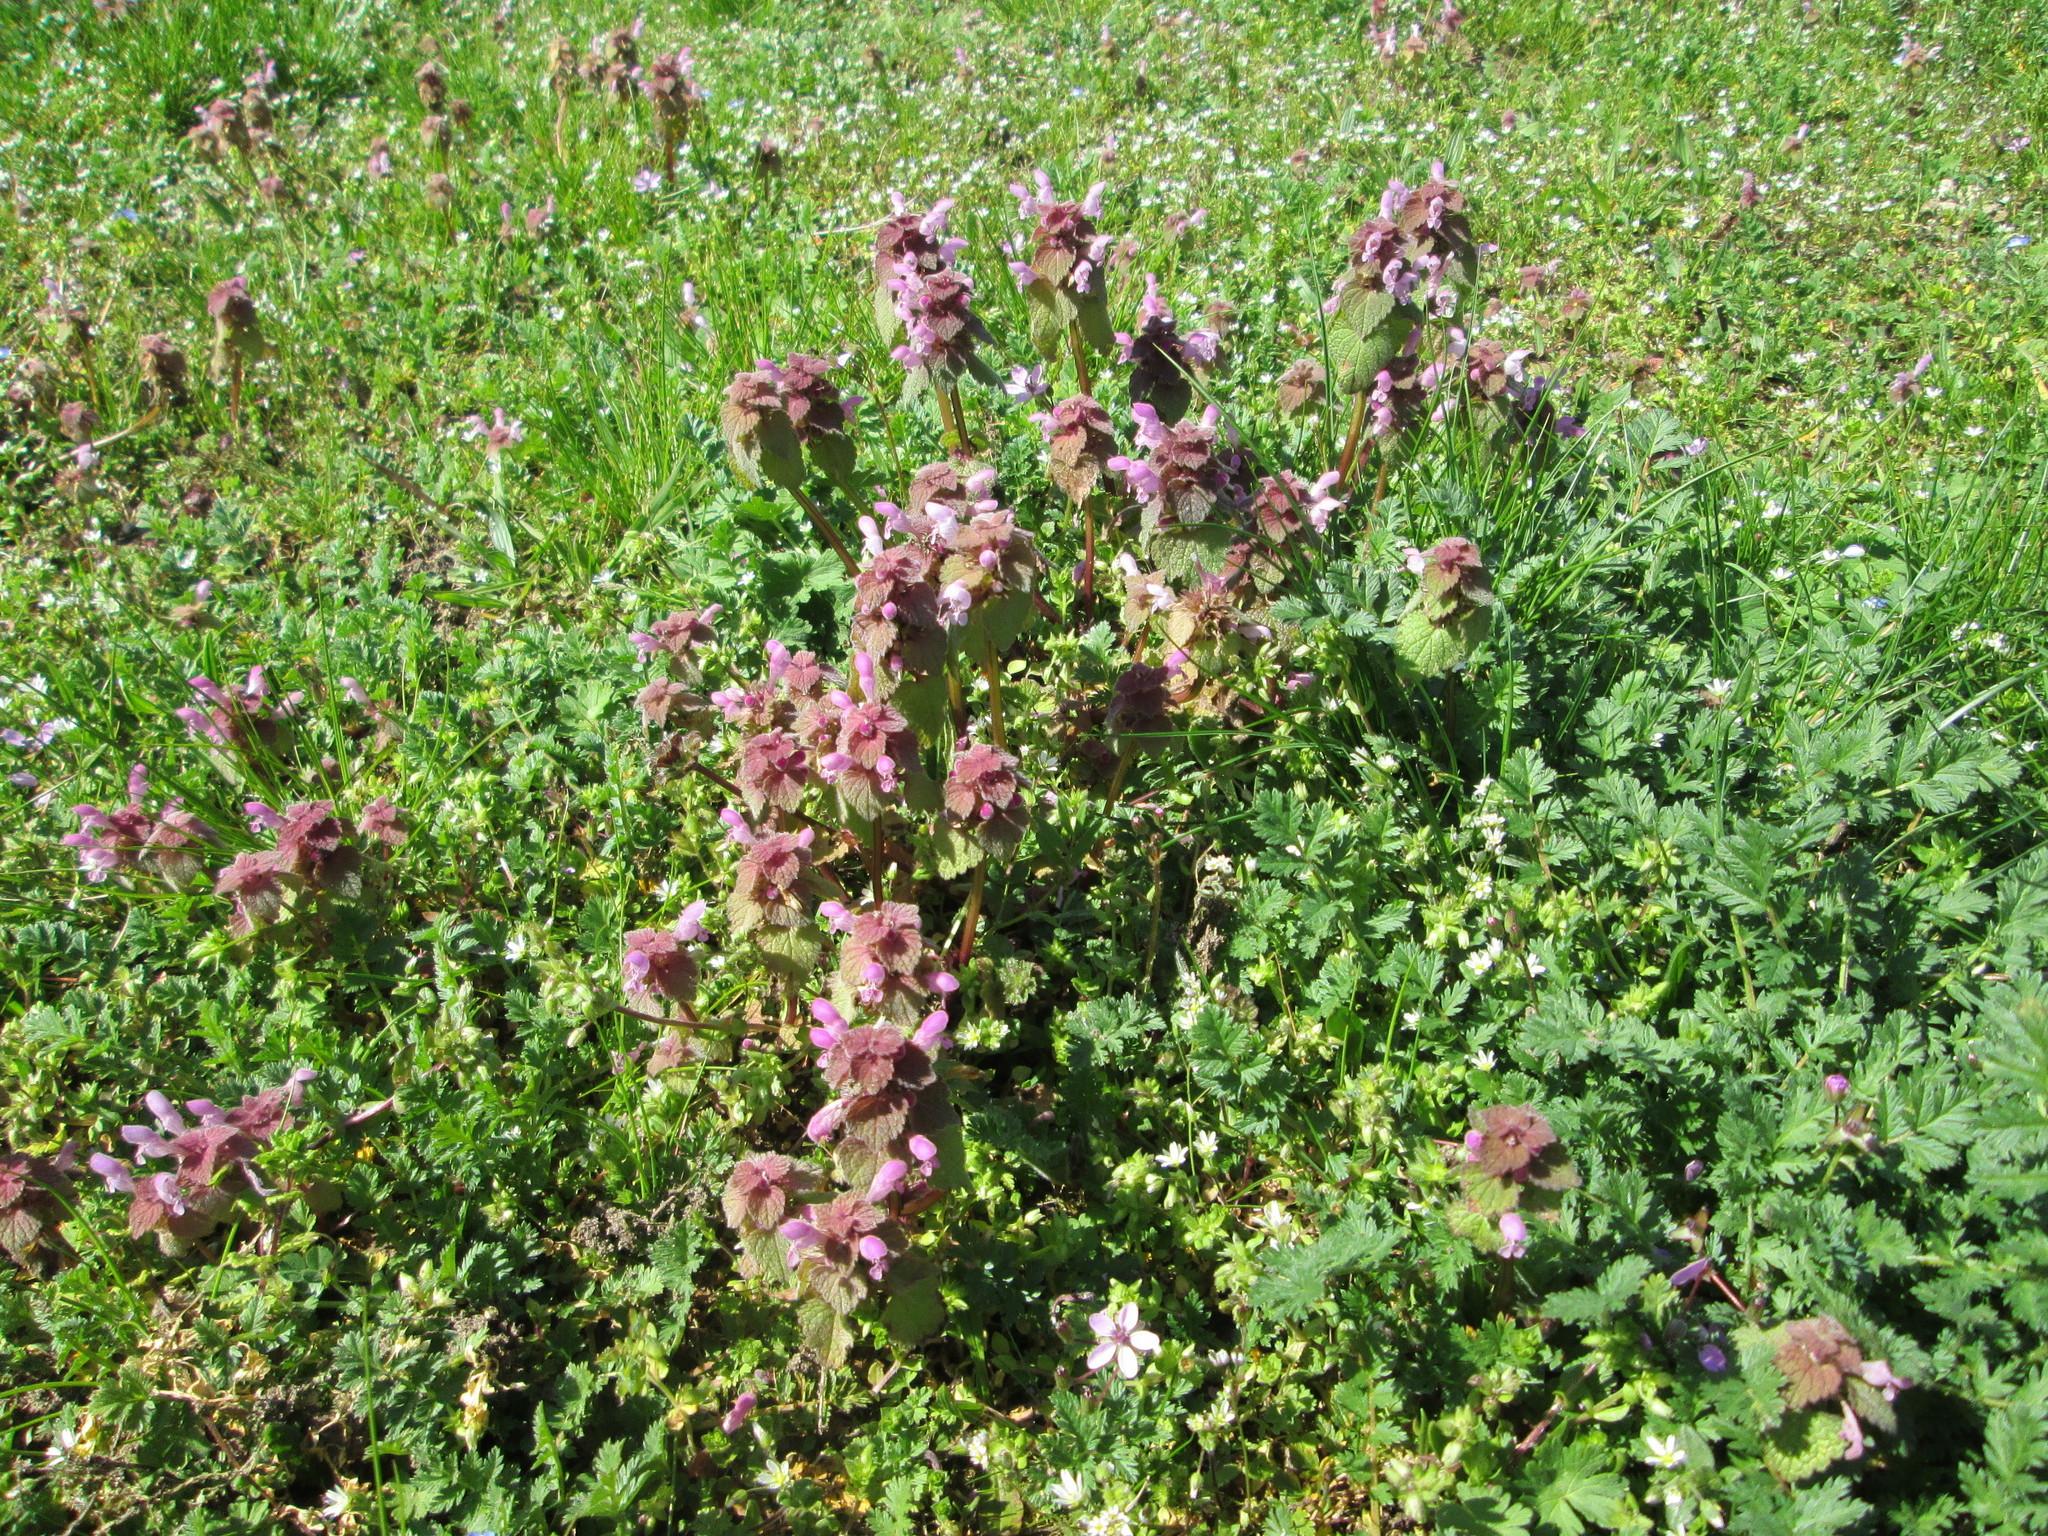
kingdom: Plantae
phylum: Tracheophyta
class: Magnoliopsida
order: Lamiales
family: Lamiaceae
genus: Lamium
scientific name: Lamium purpureum
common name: Red dead-nettle
